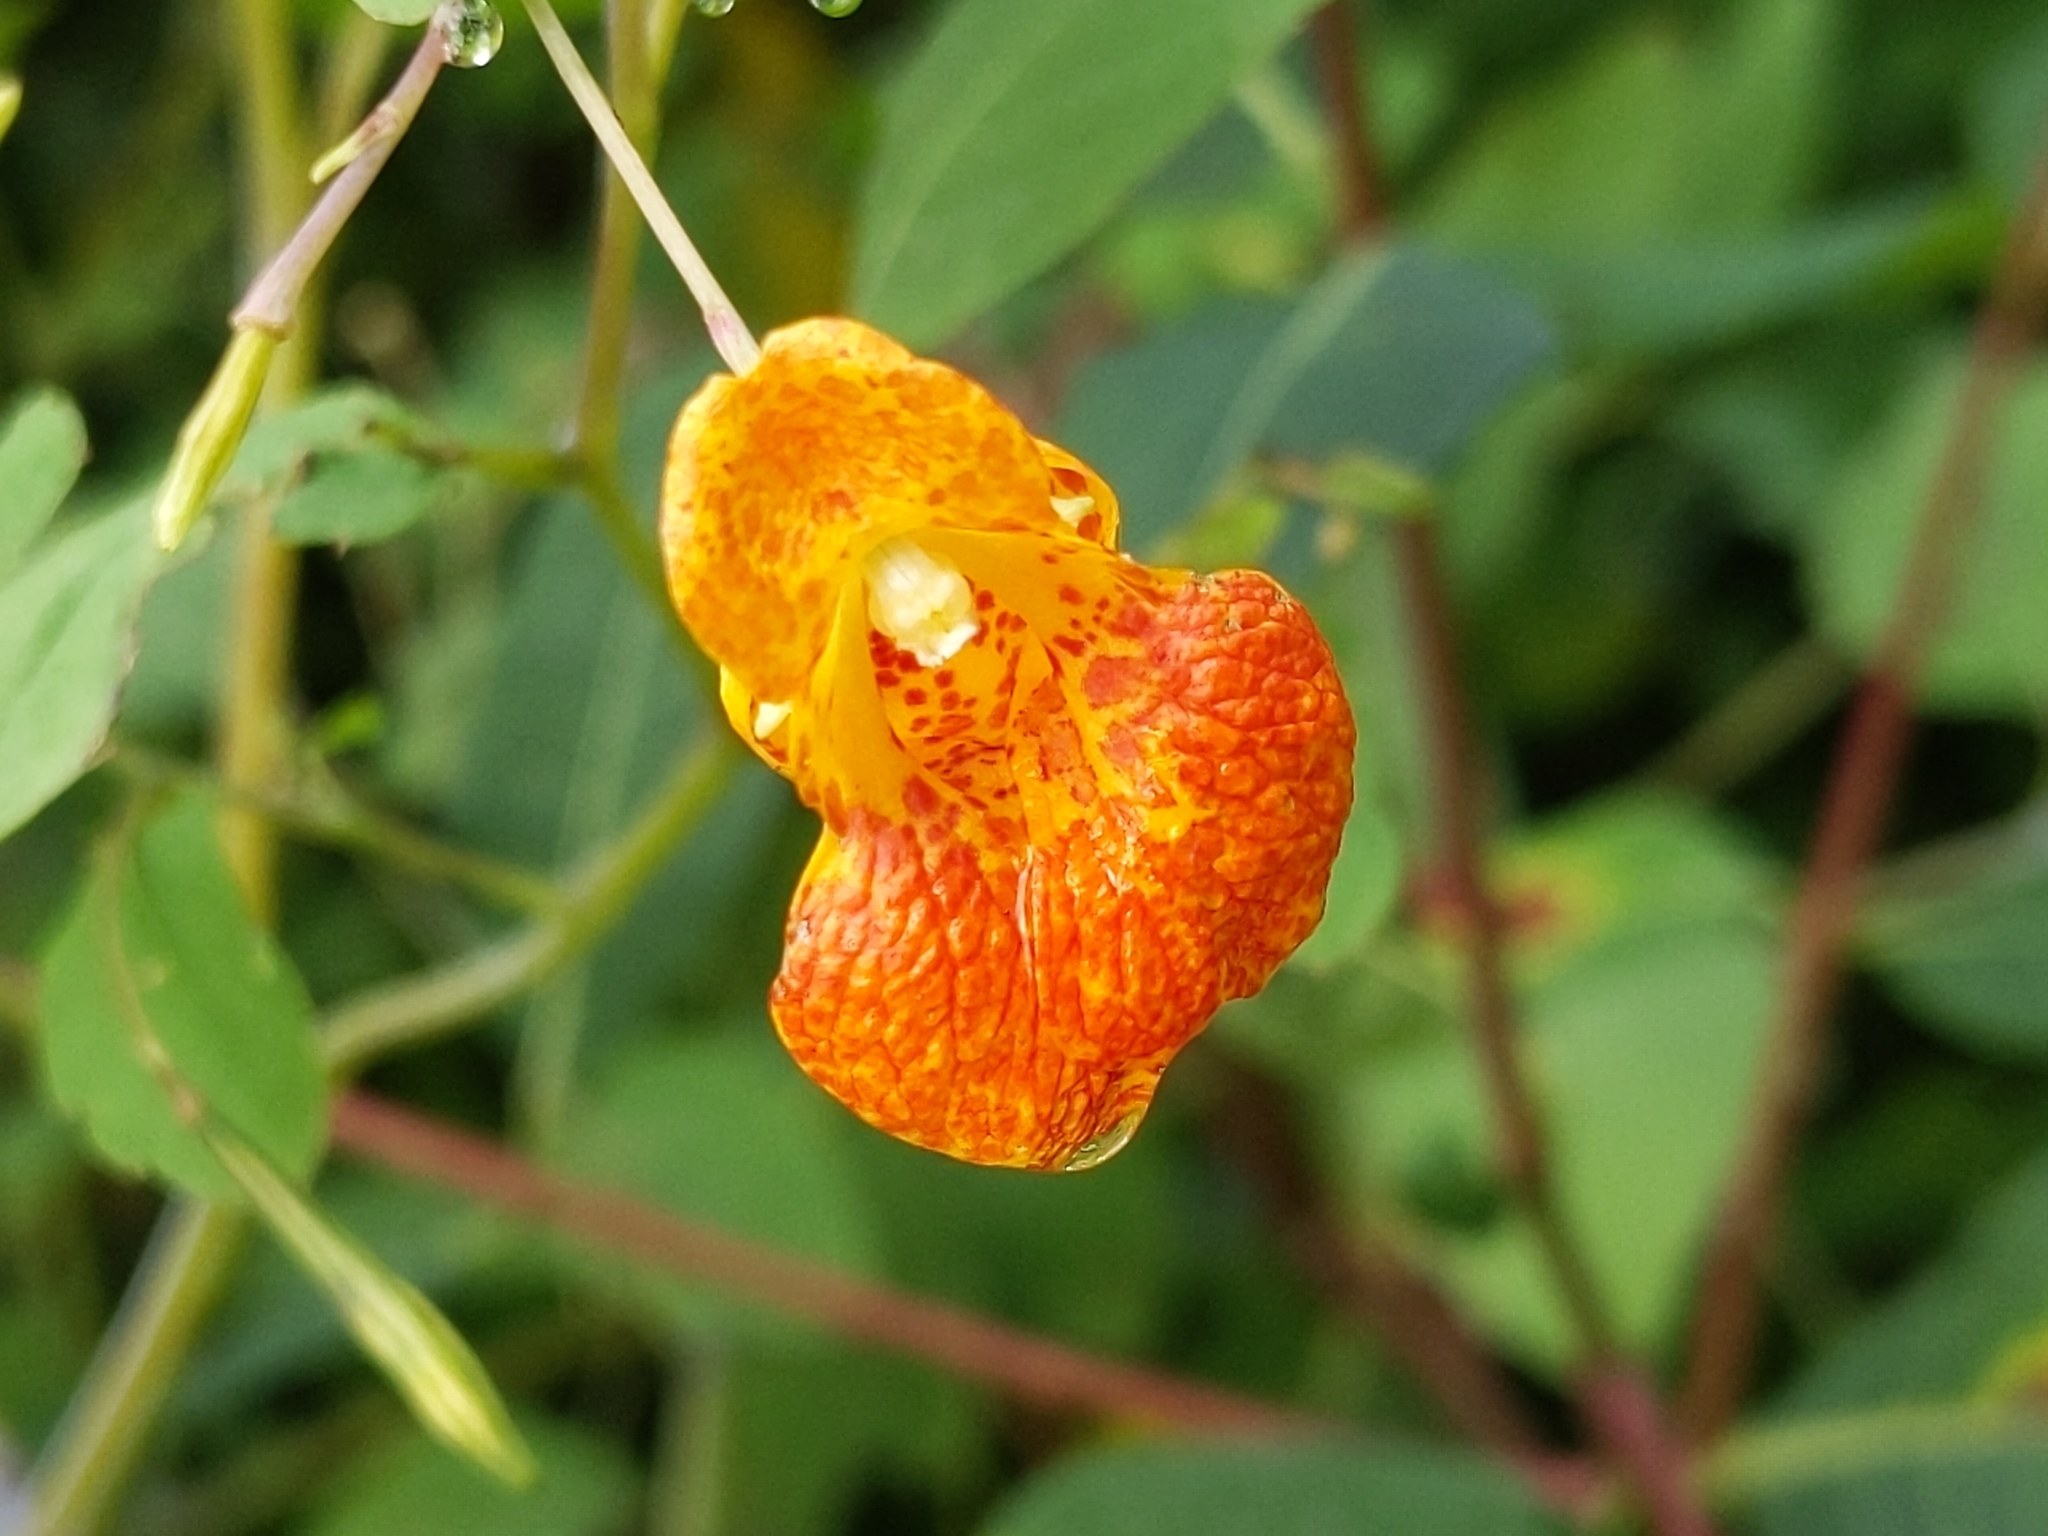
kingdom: Plantae
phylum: Tracheophyta
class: Magnoliopsida
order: Ericales
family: Balsaminaceae
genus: Impatiens
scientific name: Impatiens capensis
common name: Orange balsam
